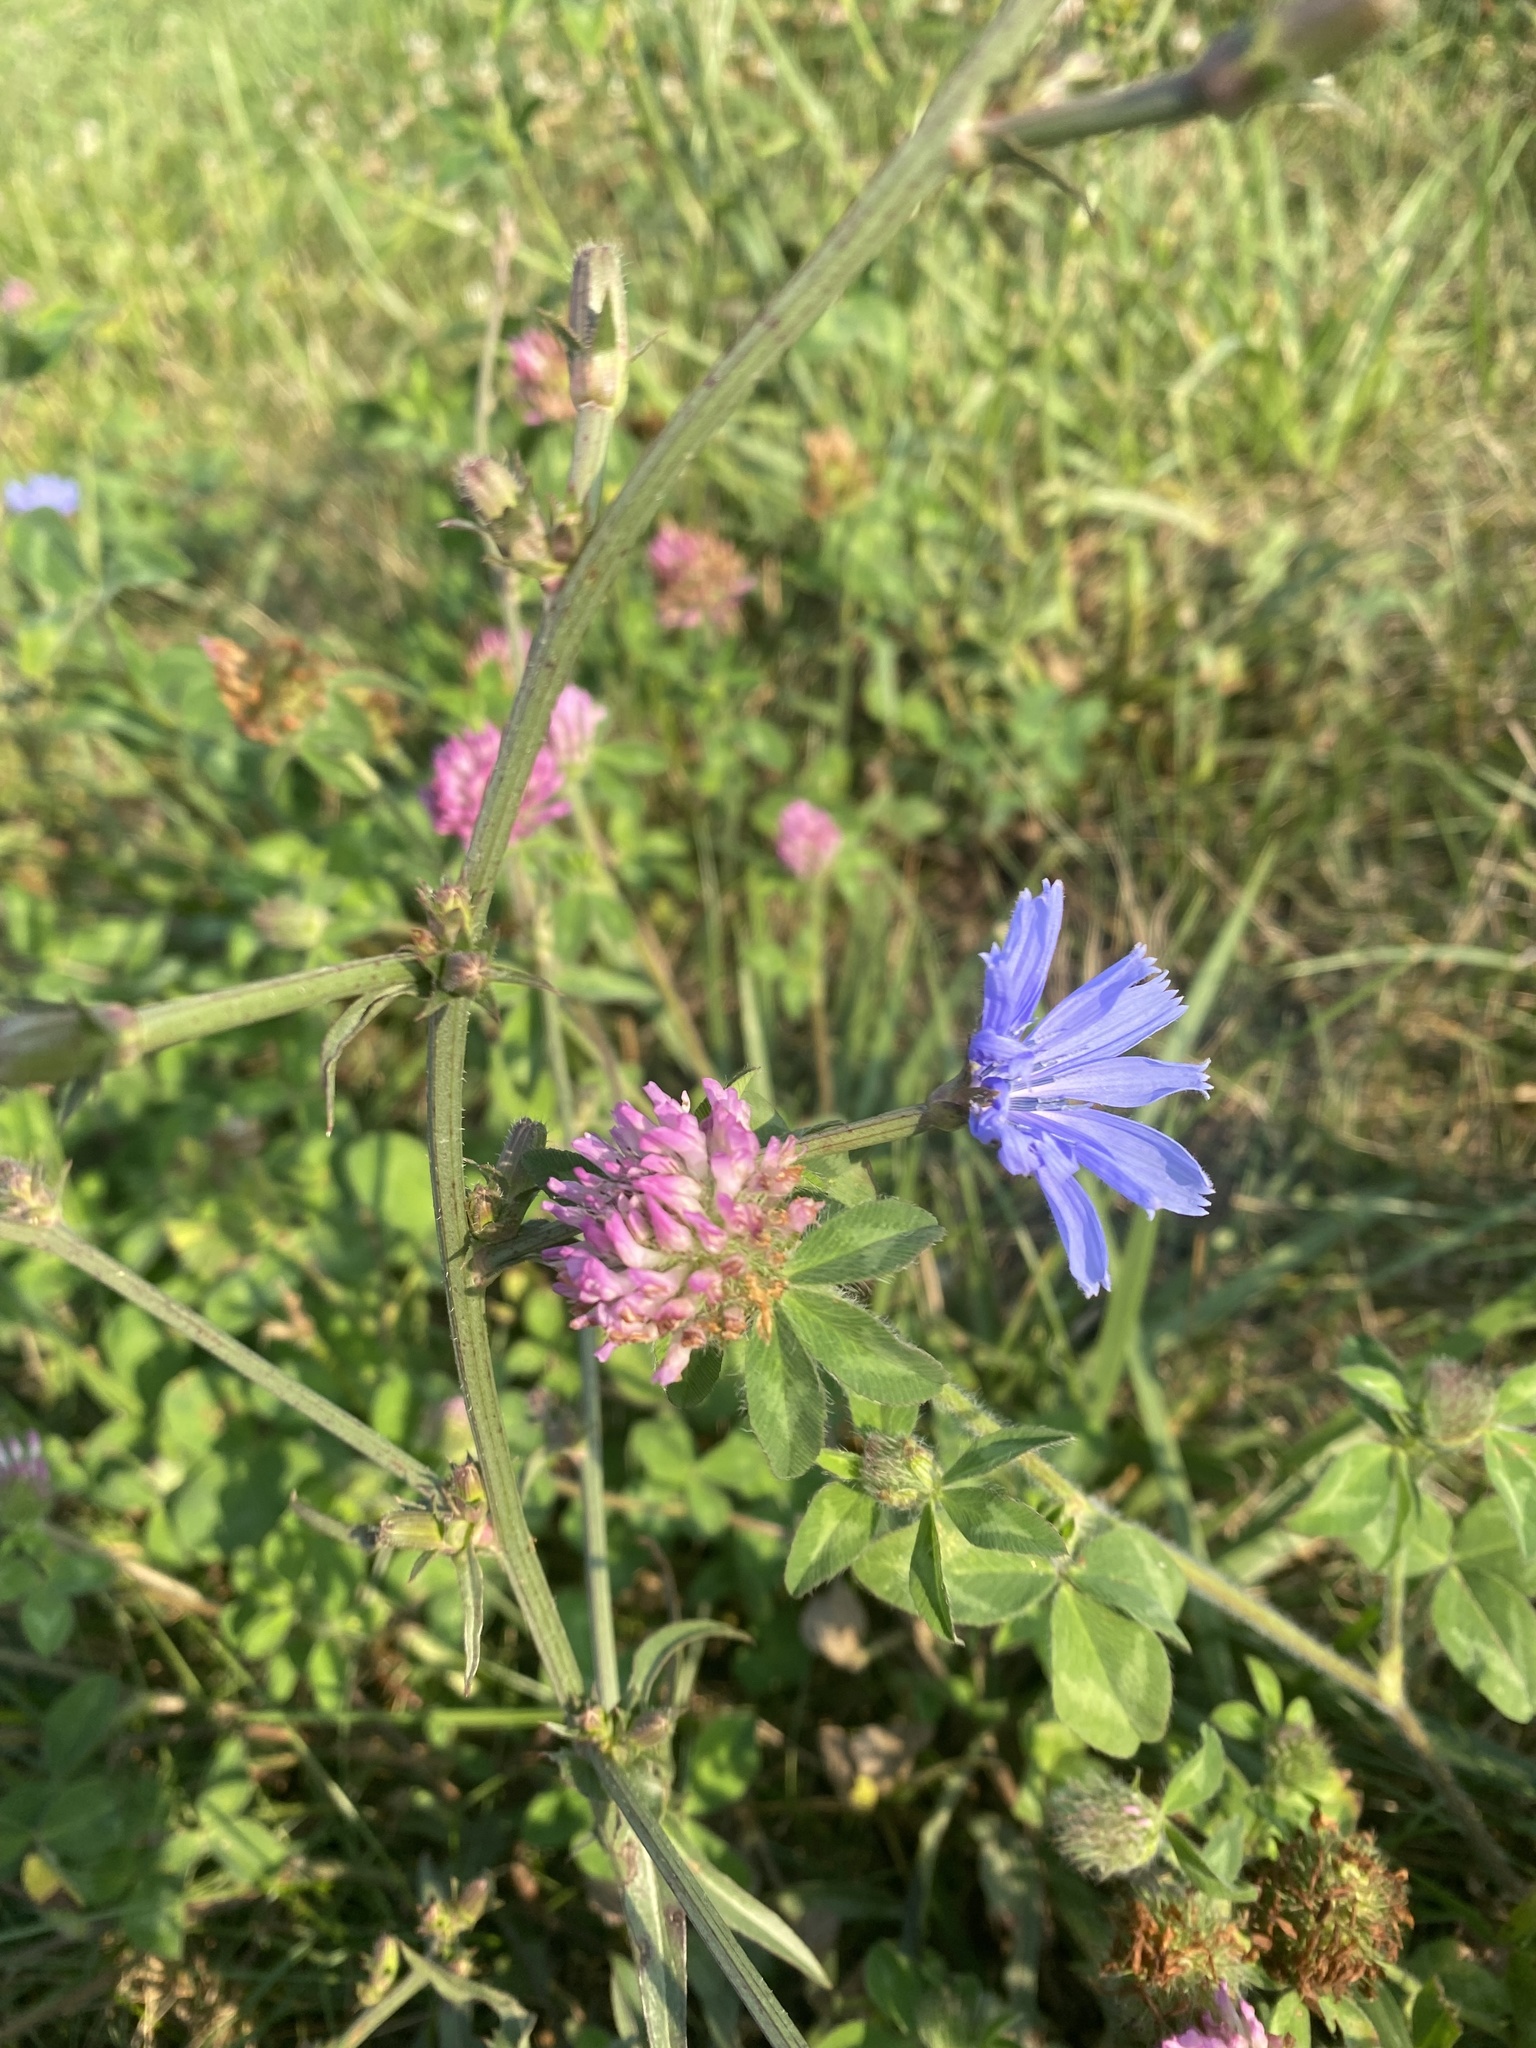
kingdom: Plantae
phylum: Tracheophyta
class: Magnoliopsida
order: Asterales
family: Asteraceae
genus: Cichorium
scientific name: Cichorium intybus
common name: Chicory
